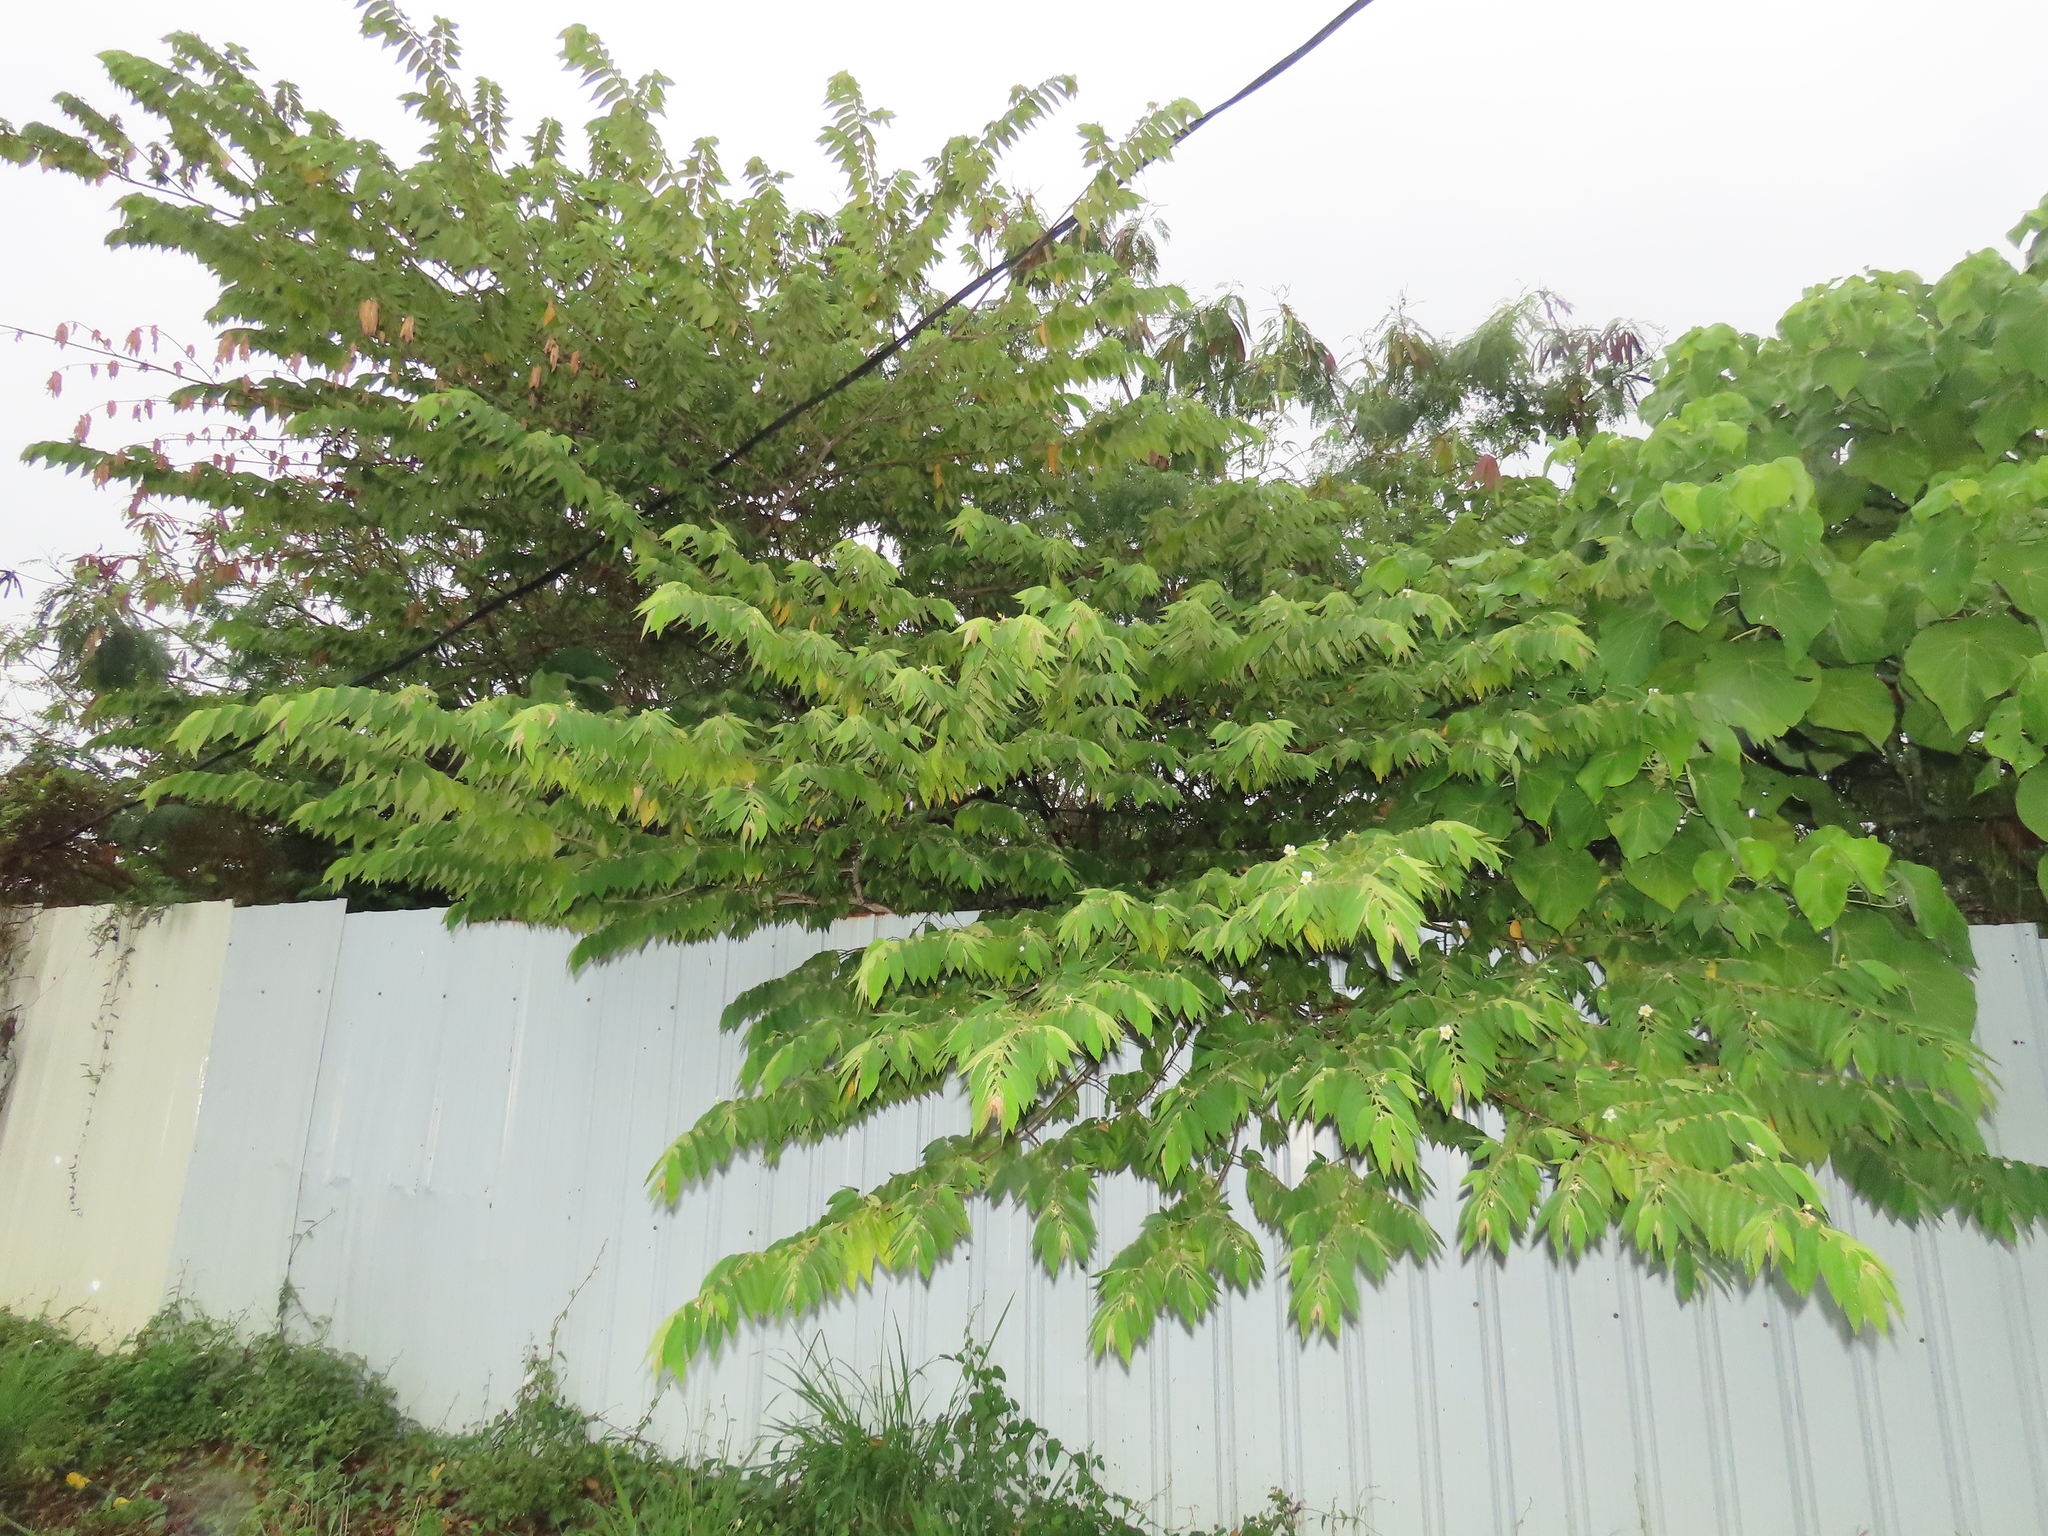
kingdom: Plantae
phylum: Tracheophyta
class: Magnoliopsida
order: Malvales
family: Muntingiaceae
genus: Muntingia
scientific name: Muntingia calabura
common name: Strawberrytree
